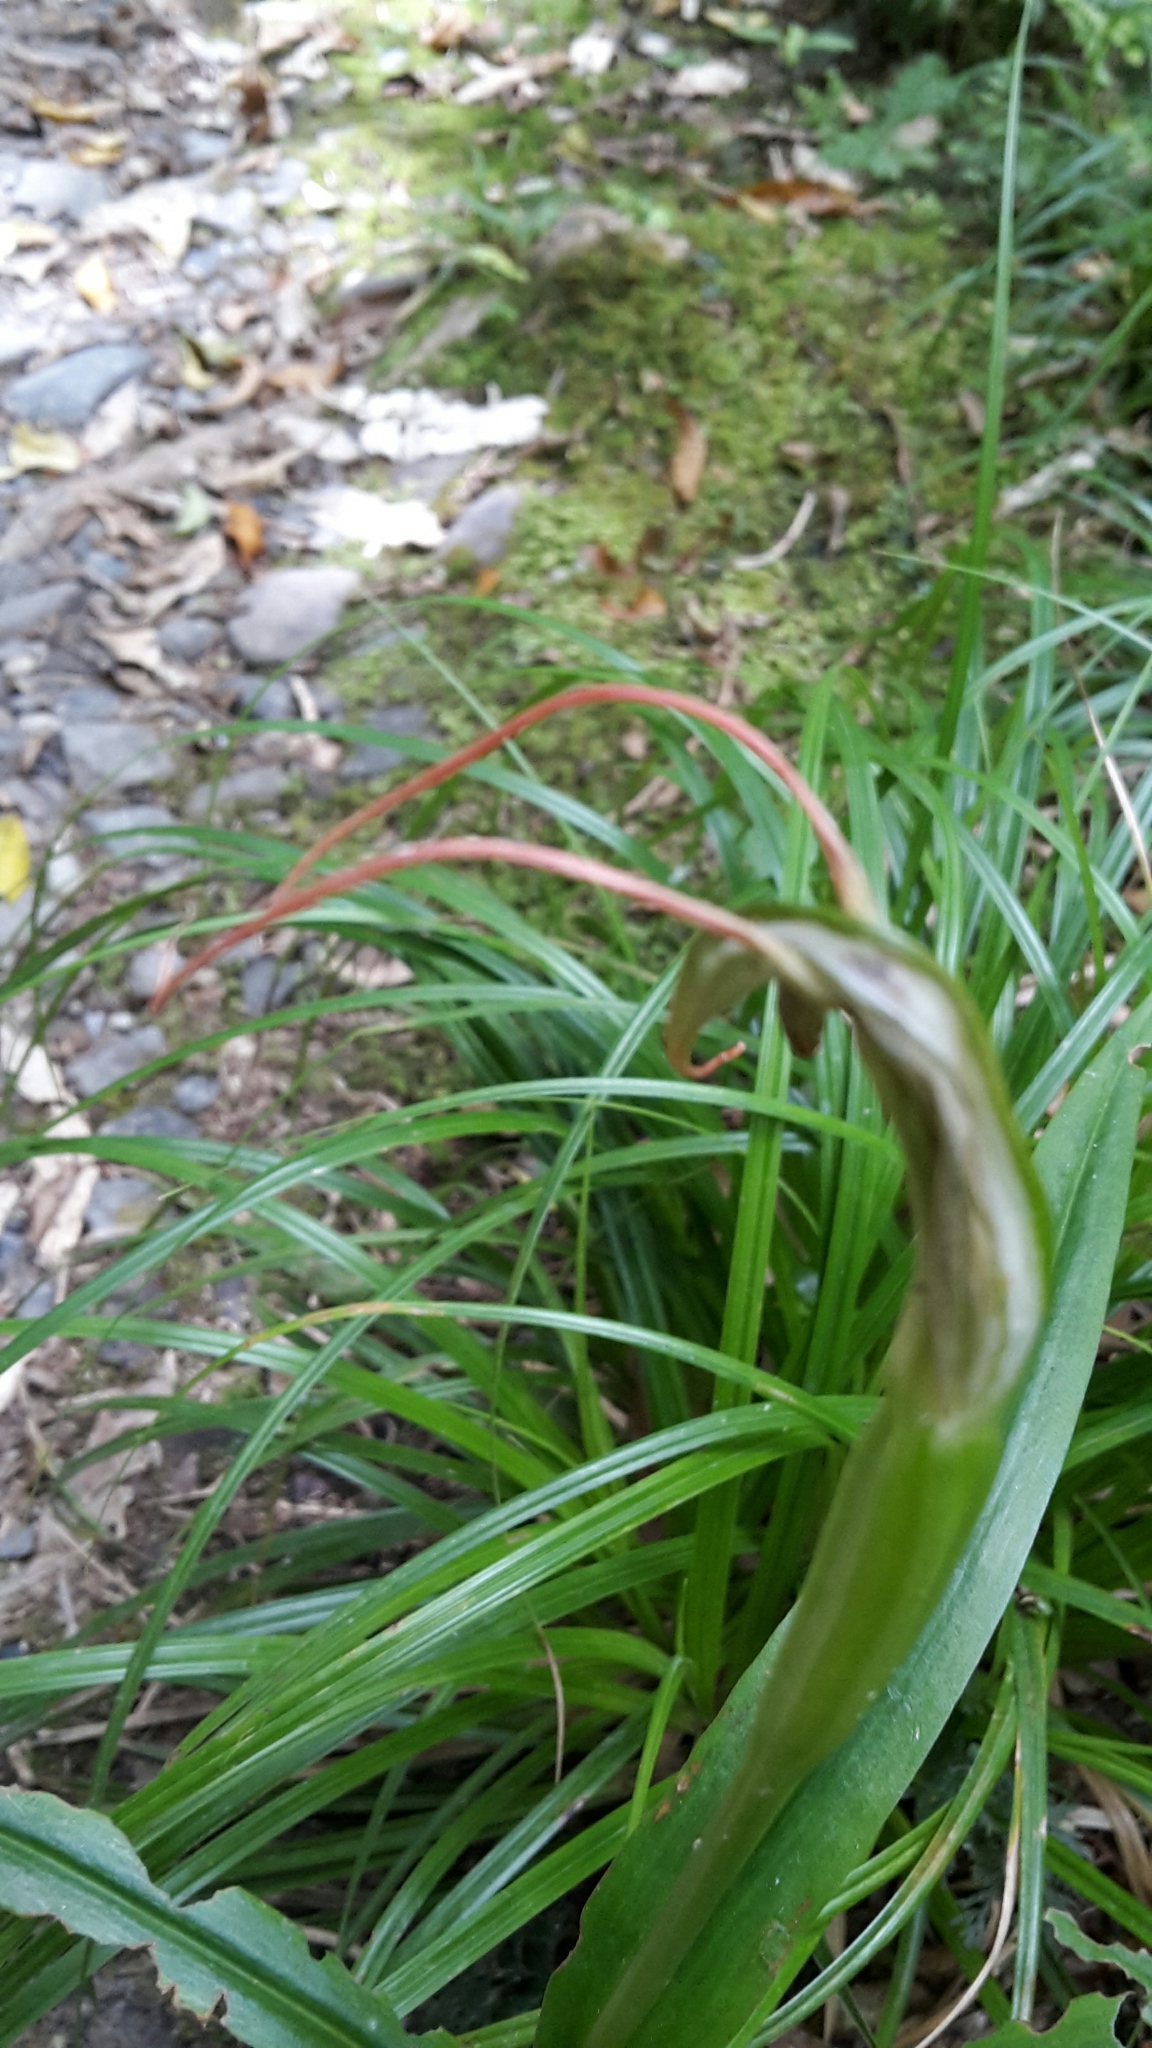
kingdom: Plantae
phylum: Tracheophyta
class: Liliopsida
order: Asparagales
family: Orchidaceae
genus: Pterostylis
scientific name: Pterostylis banksii
